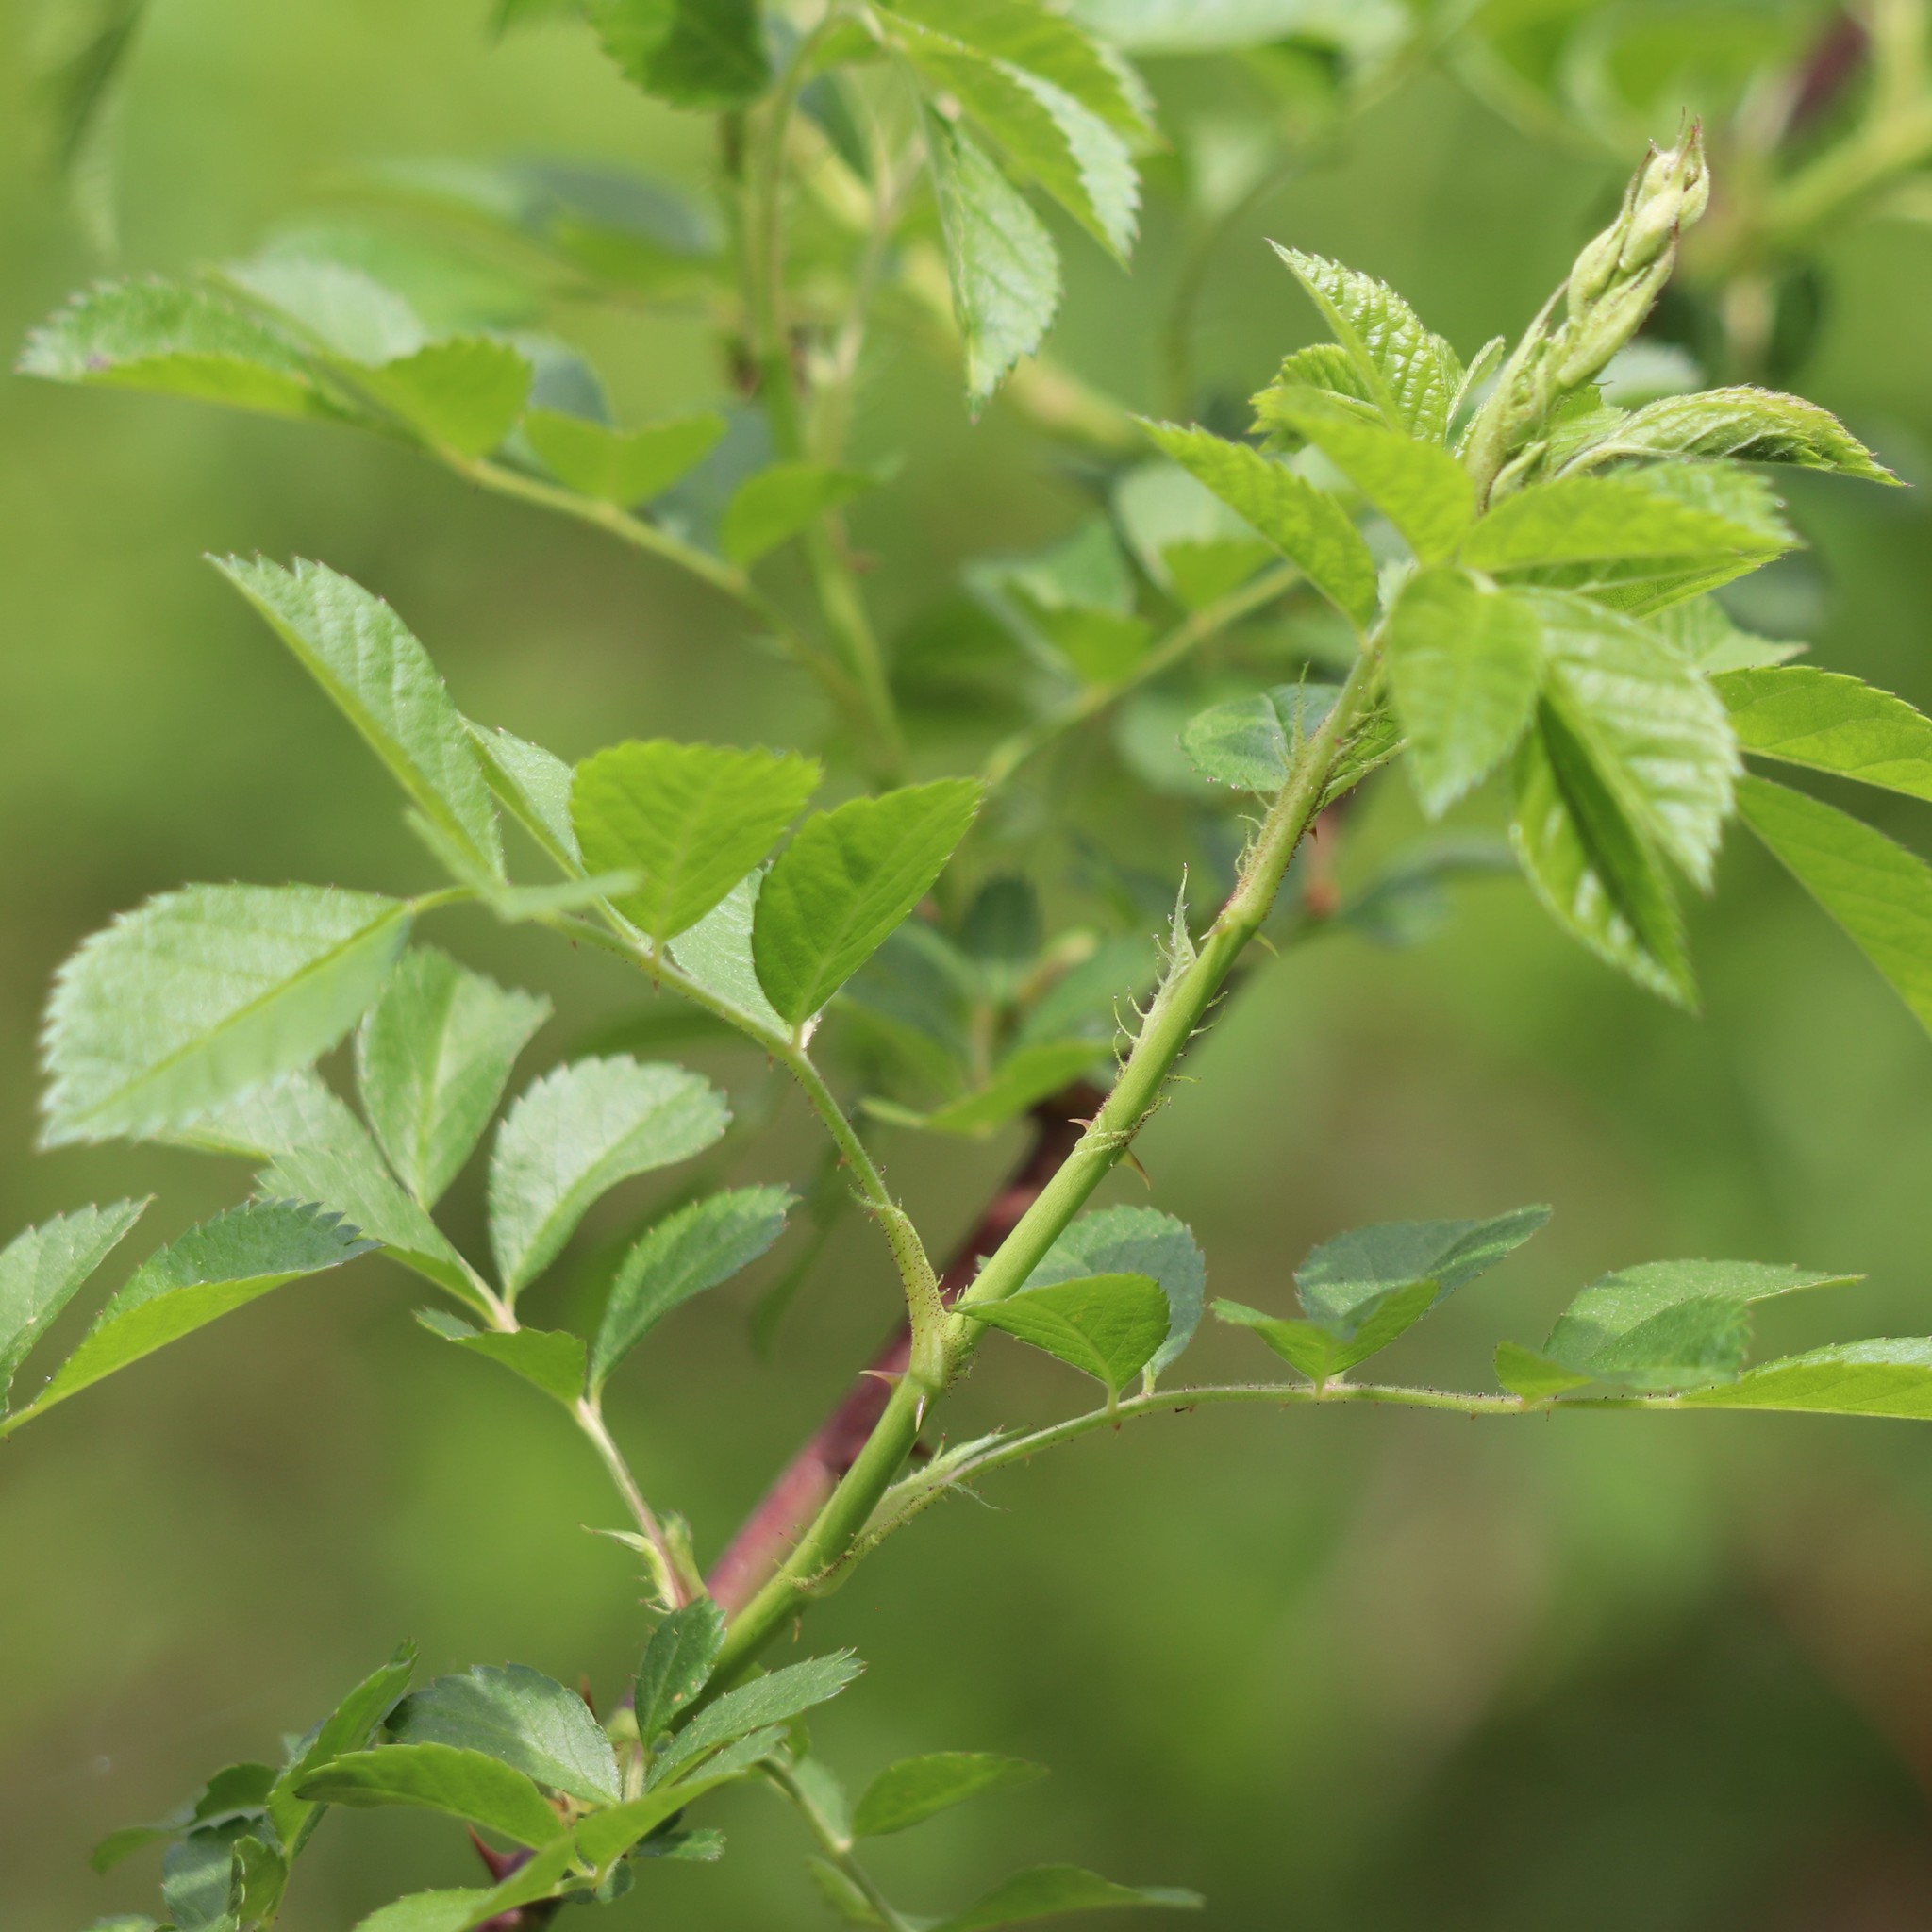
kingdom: Plantae
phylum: Tracheophyta
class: Magnoliopsida
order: Rosales
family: Rosaceae
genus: Rosa
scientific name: Rosa multiflora
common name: Multiflora rose
